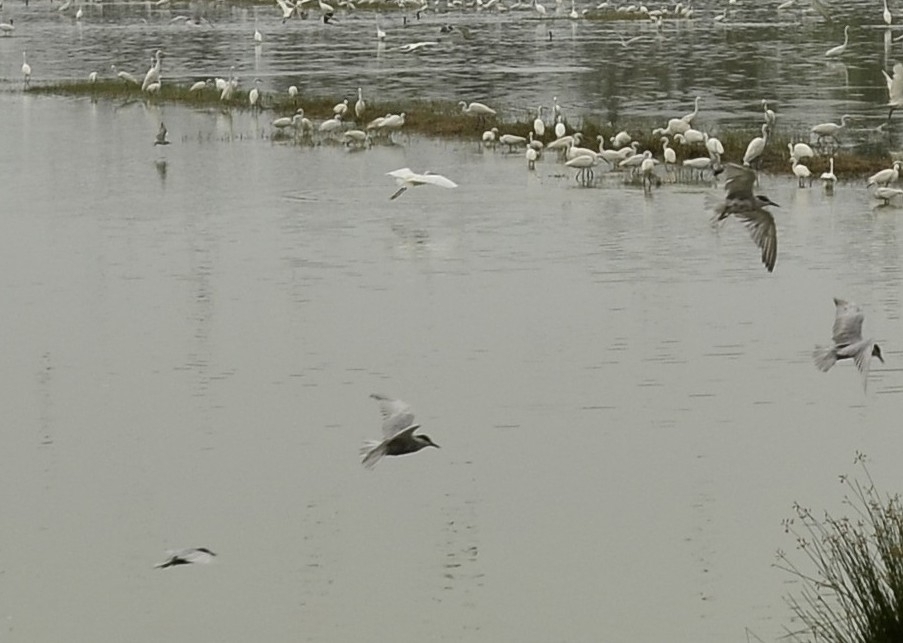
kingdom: Animalia
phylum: Chordata
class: Aves
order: Charadriiformes
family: Laridae
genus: Chlidonias
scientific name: Chlidonias hybrida
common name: Whiskered tern
